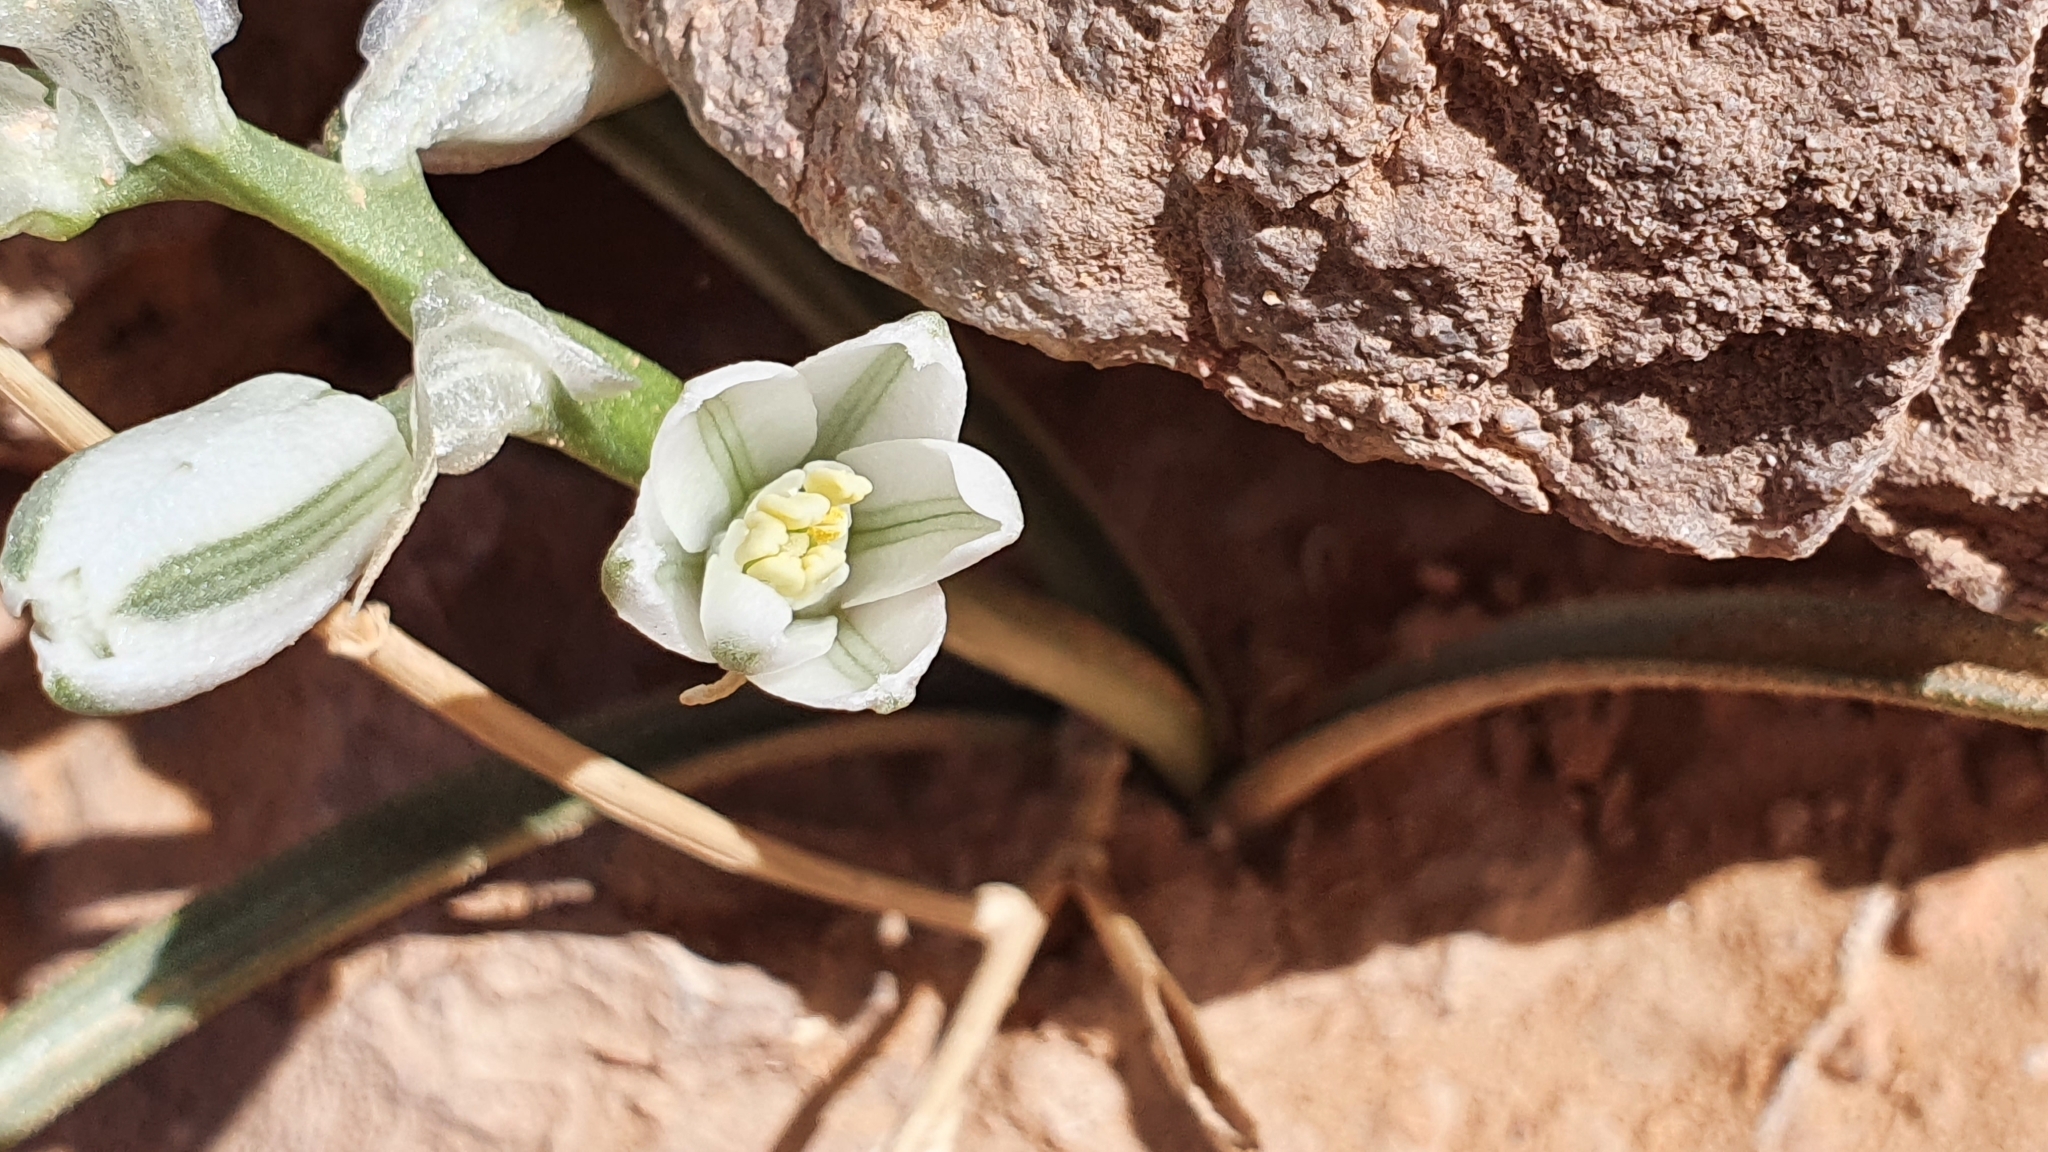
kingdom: Plantae
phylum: Tracheophyta
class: Liliopsida
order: Asparagales
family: Asparagaceae
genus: Albuca
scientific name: Albuca amoena
